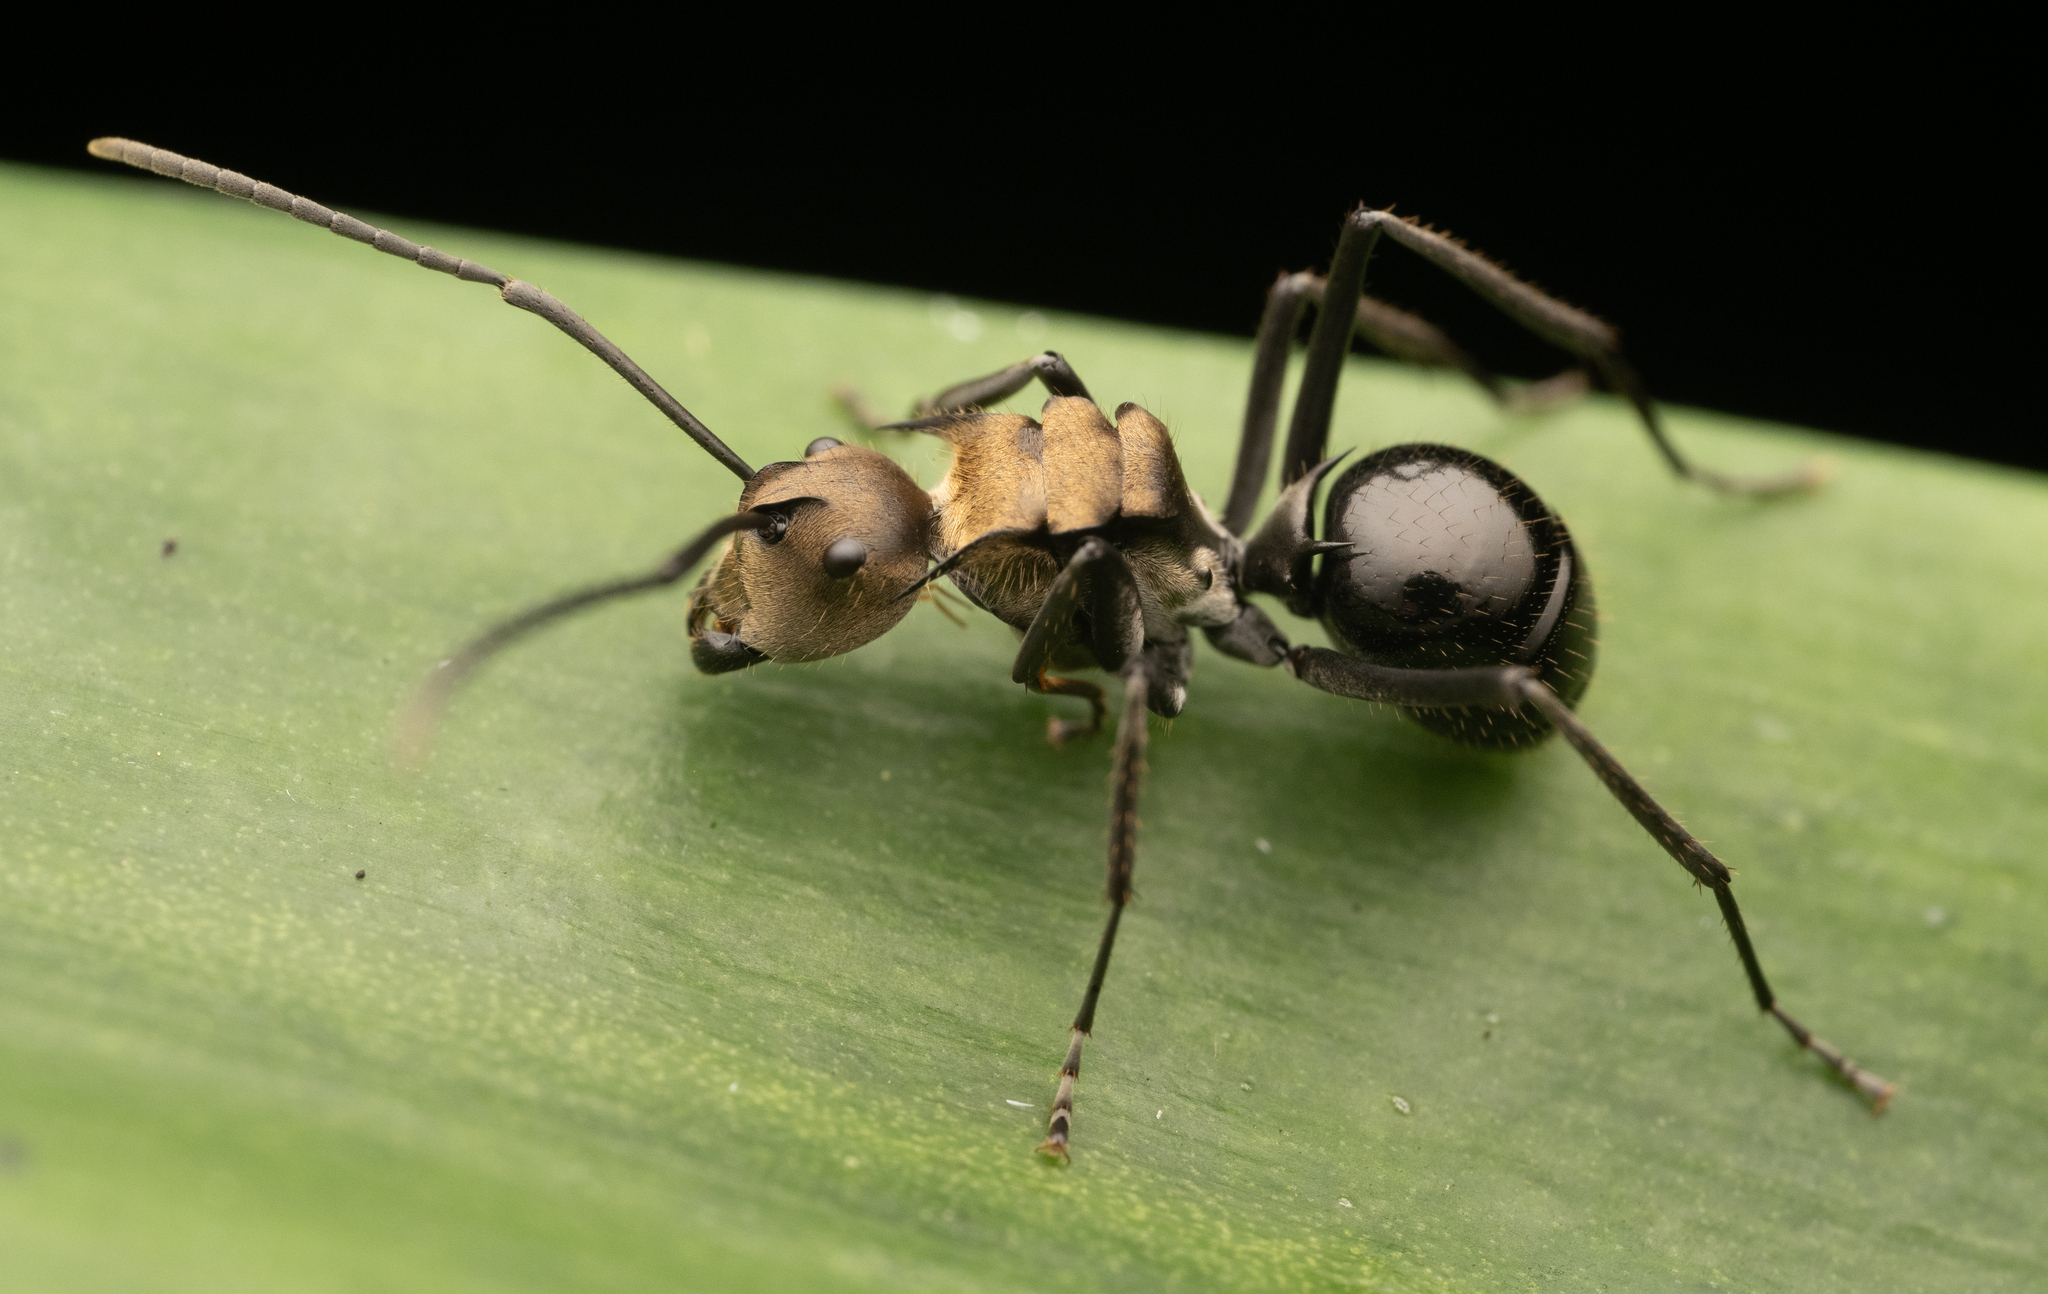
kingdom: Animalia
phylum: Arthropoda
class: Insecta
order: Hymenoptera
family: Formicidae
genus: Polyrhachis
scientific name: Polyrhachis sericata
